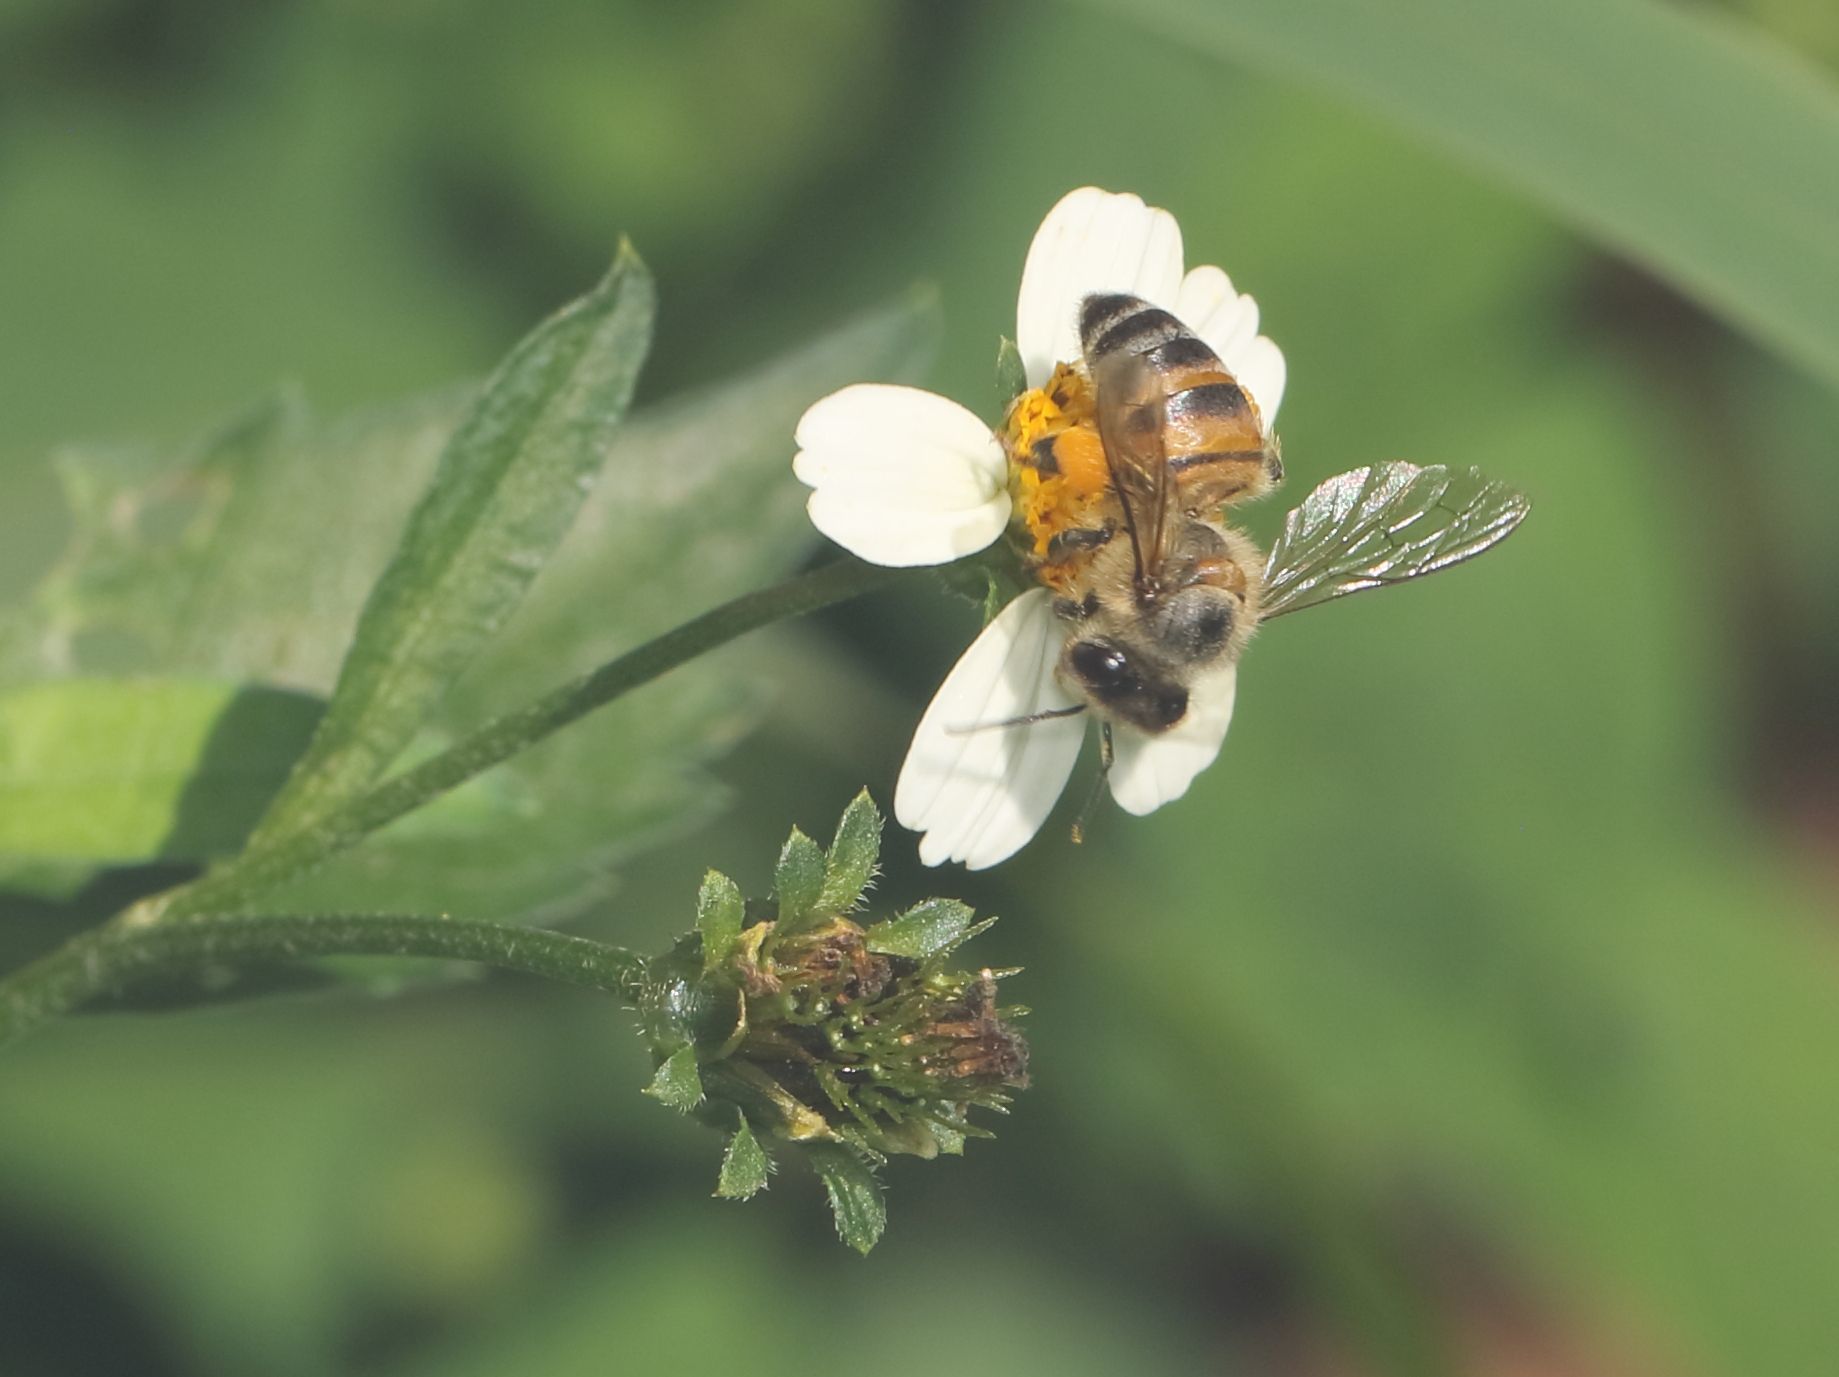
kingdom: Plantae
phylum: Tracheophyta
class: Magnoliopsida
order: Asterales
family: Asteraceae
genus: Bidens
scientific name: Bidens pilosa
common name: Black-jack
